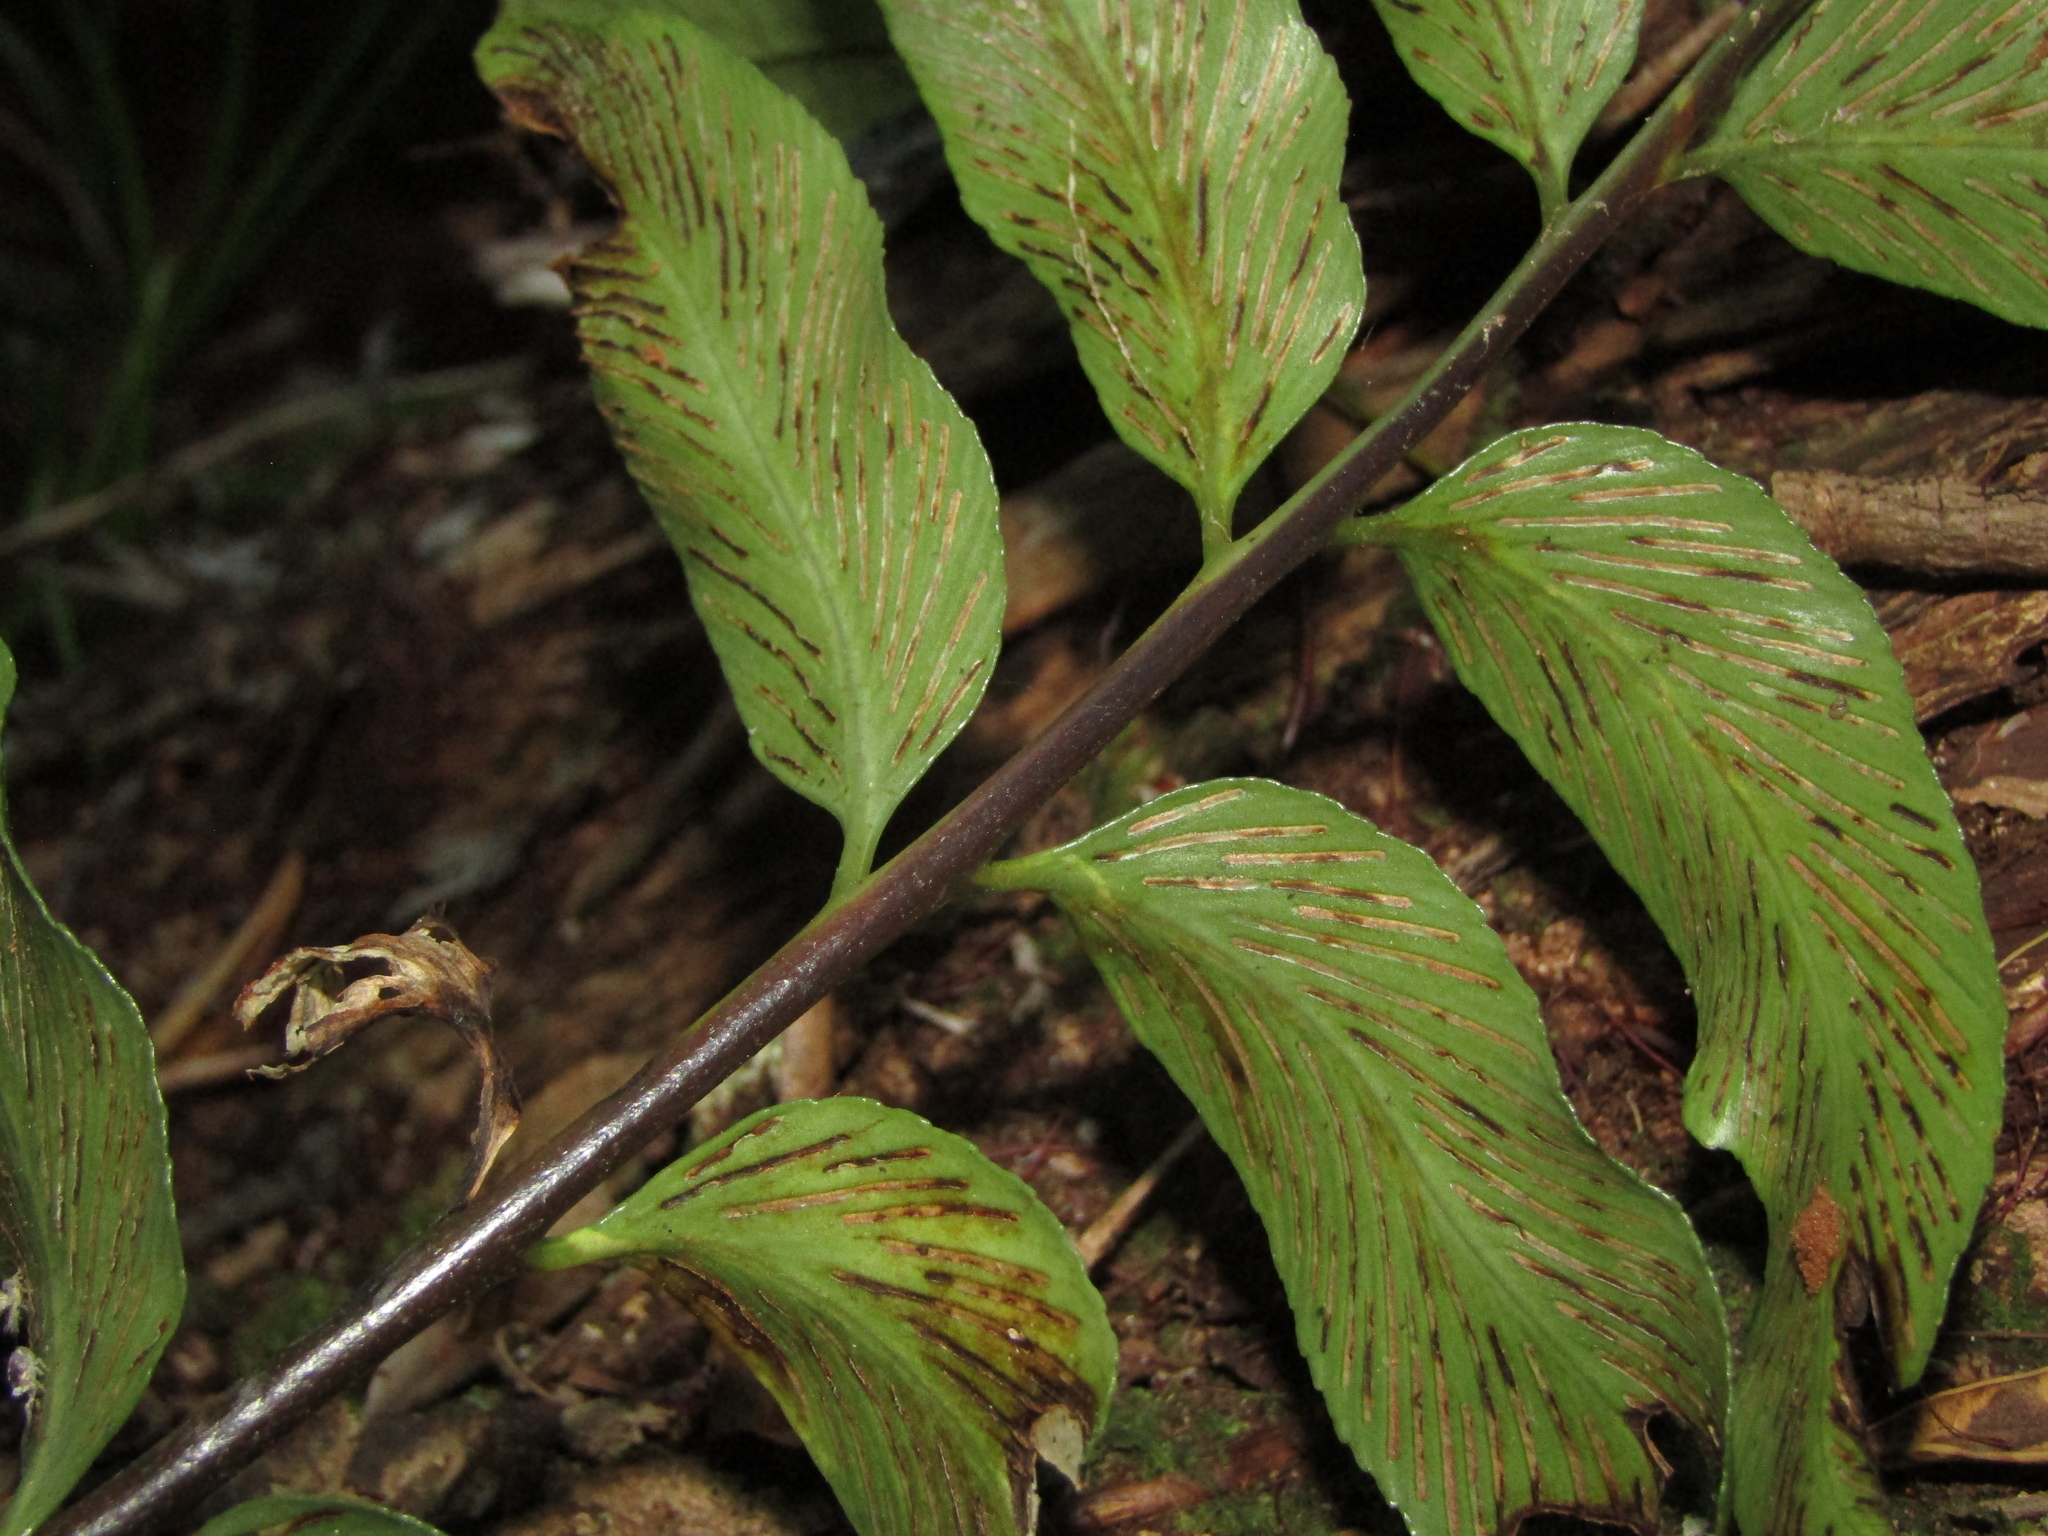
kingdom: Plantae
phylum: Tracheophyta
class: Polypodiopsida
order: Polypodiales
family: Aspleniaceae
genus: Asplenium
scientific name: Asplenium oblongifolium
